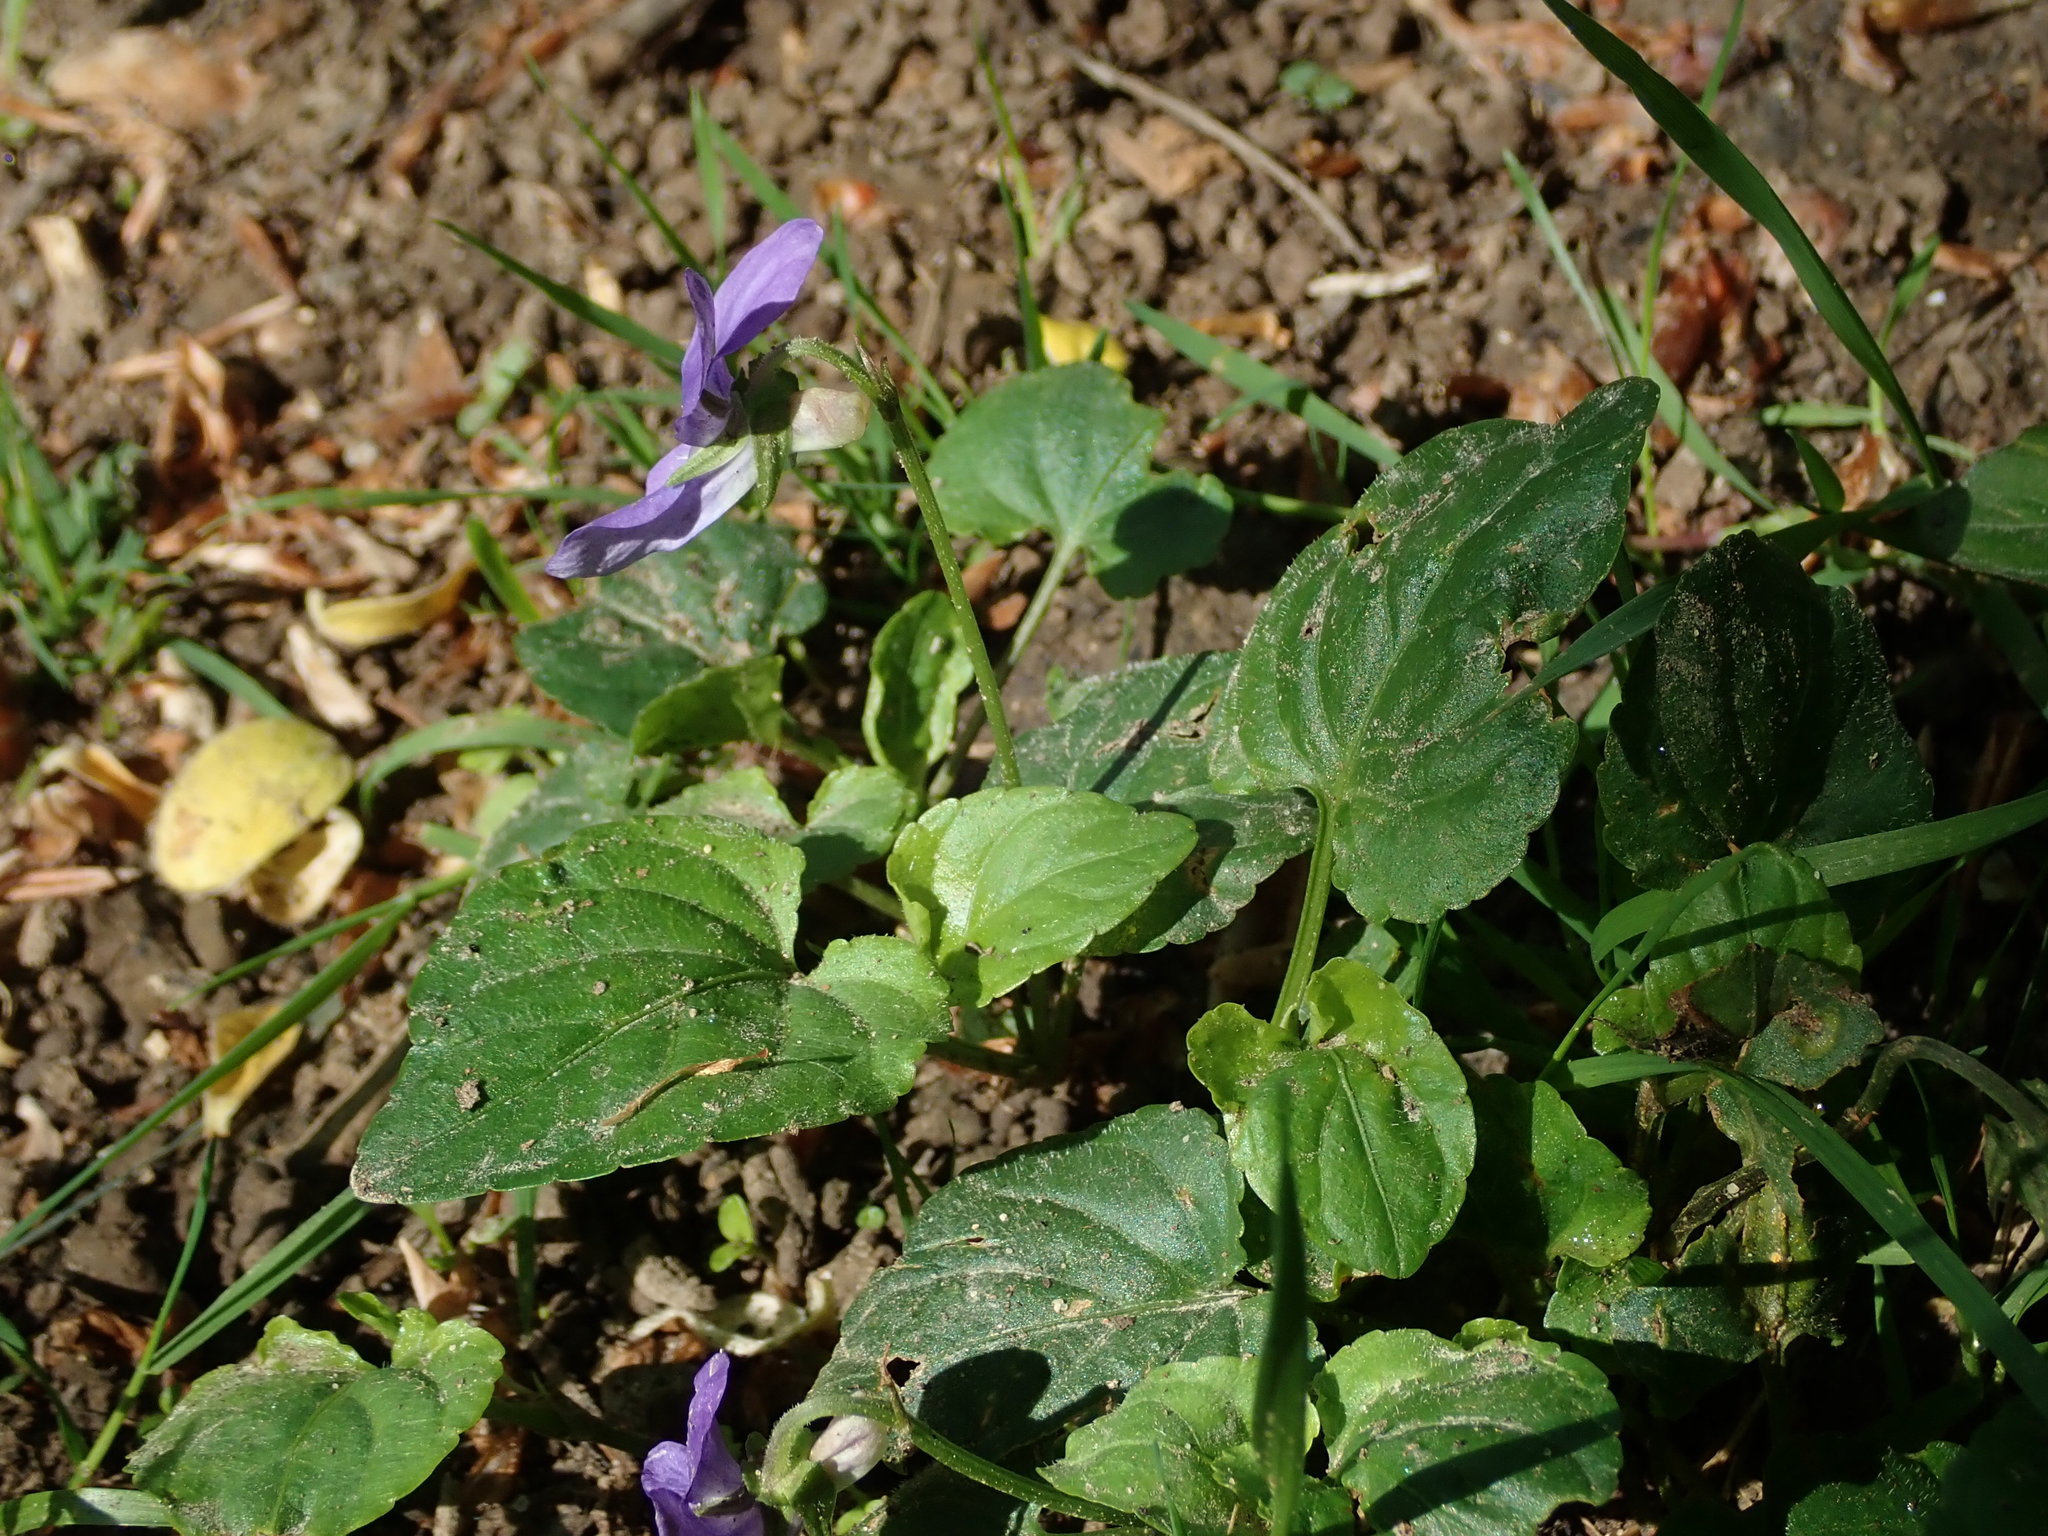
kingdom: Plantae
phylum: Tracheophyta
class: Magnoliopsida
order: Malpighiales
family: Violaceae
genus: Viola
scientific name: Viola riviniana
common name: Common dog-violet
